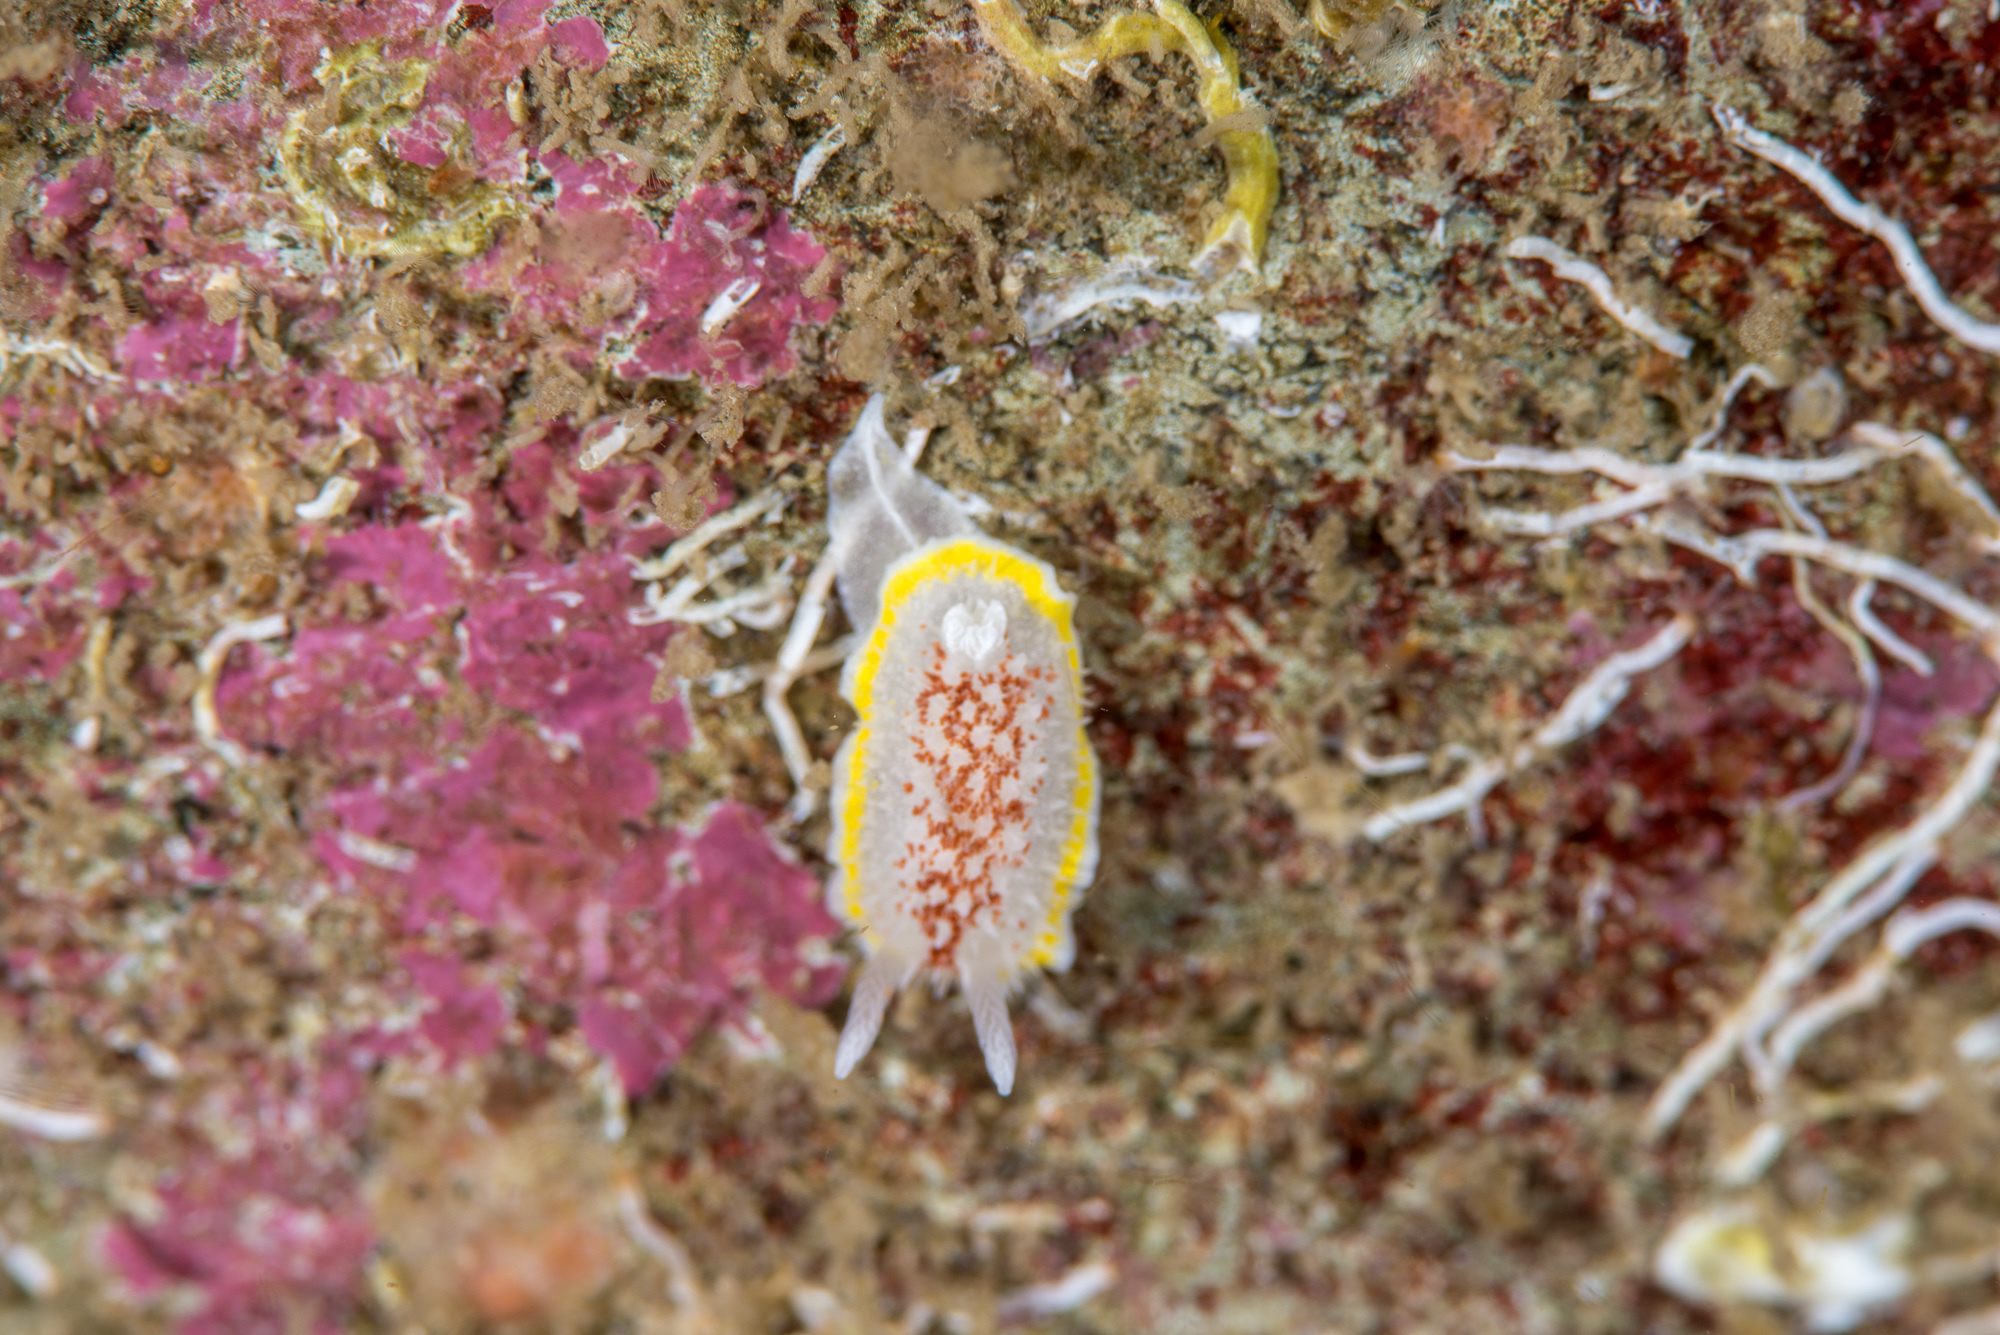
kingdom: Animalia
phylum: Mollusca
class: Gastropoda
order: Nudibranchia
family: Calycidorididae
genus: Diaphorodoris
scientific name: Diaphorodoris luteocincta
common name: Fried egg nudibranch
